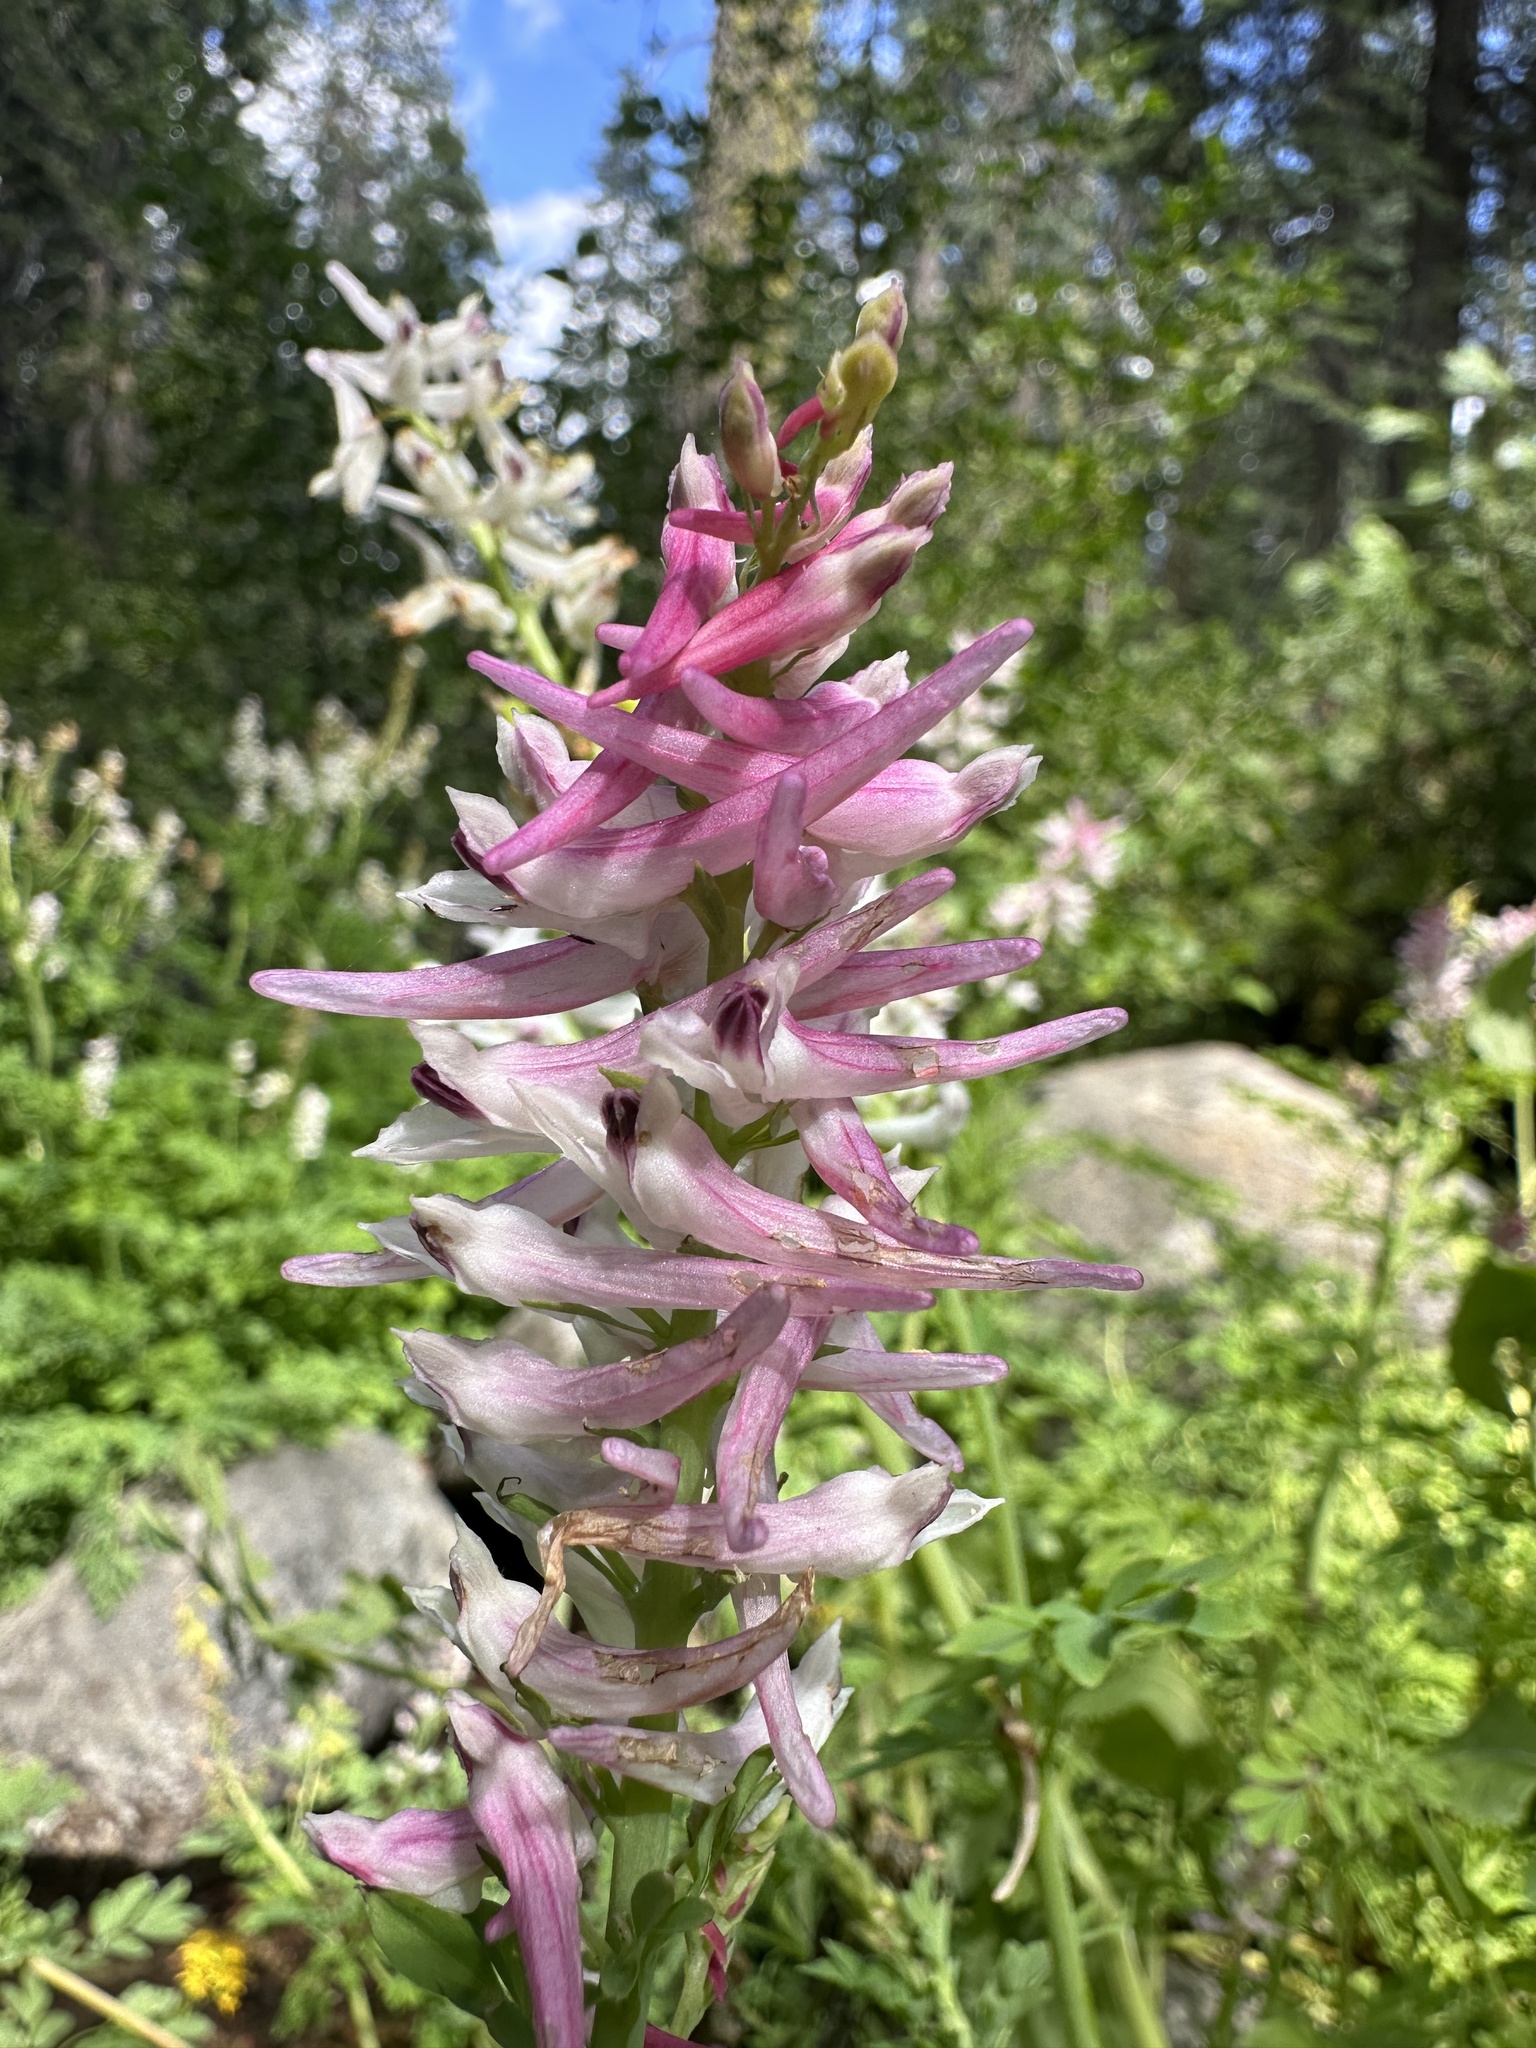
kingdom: Plantae
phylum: Tracheophyta
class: Magnoliopsida
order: Ranunculales
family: Papaveraceae
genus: Corydalis
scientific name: Corydalis caseana
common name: Fitweed
